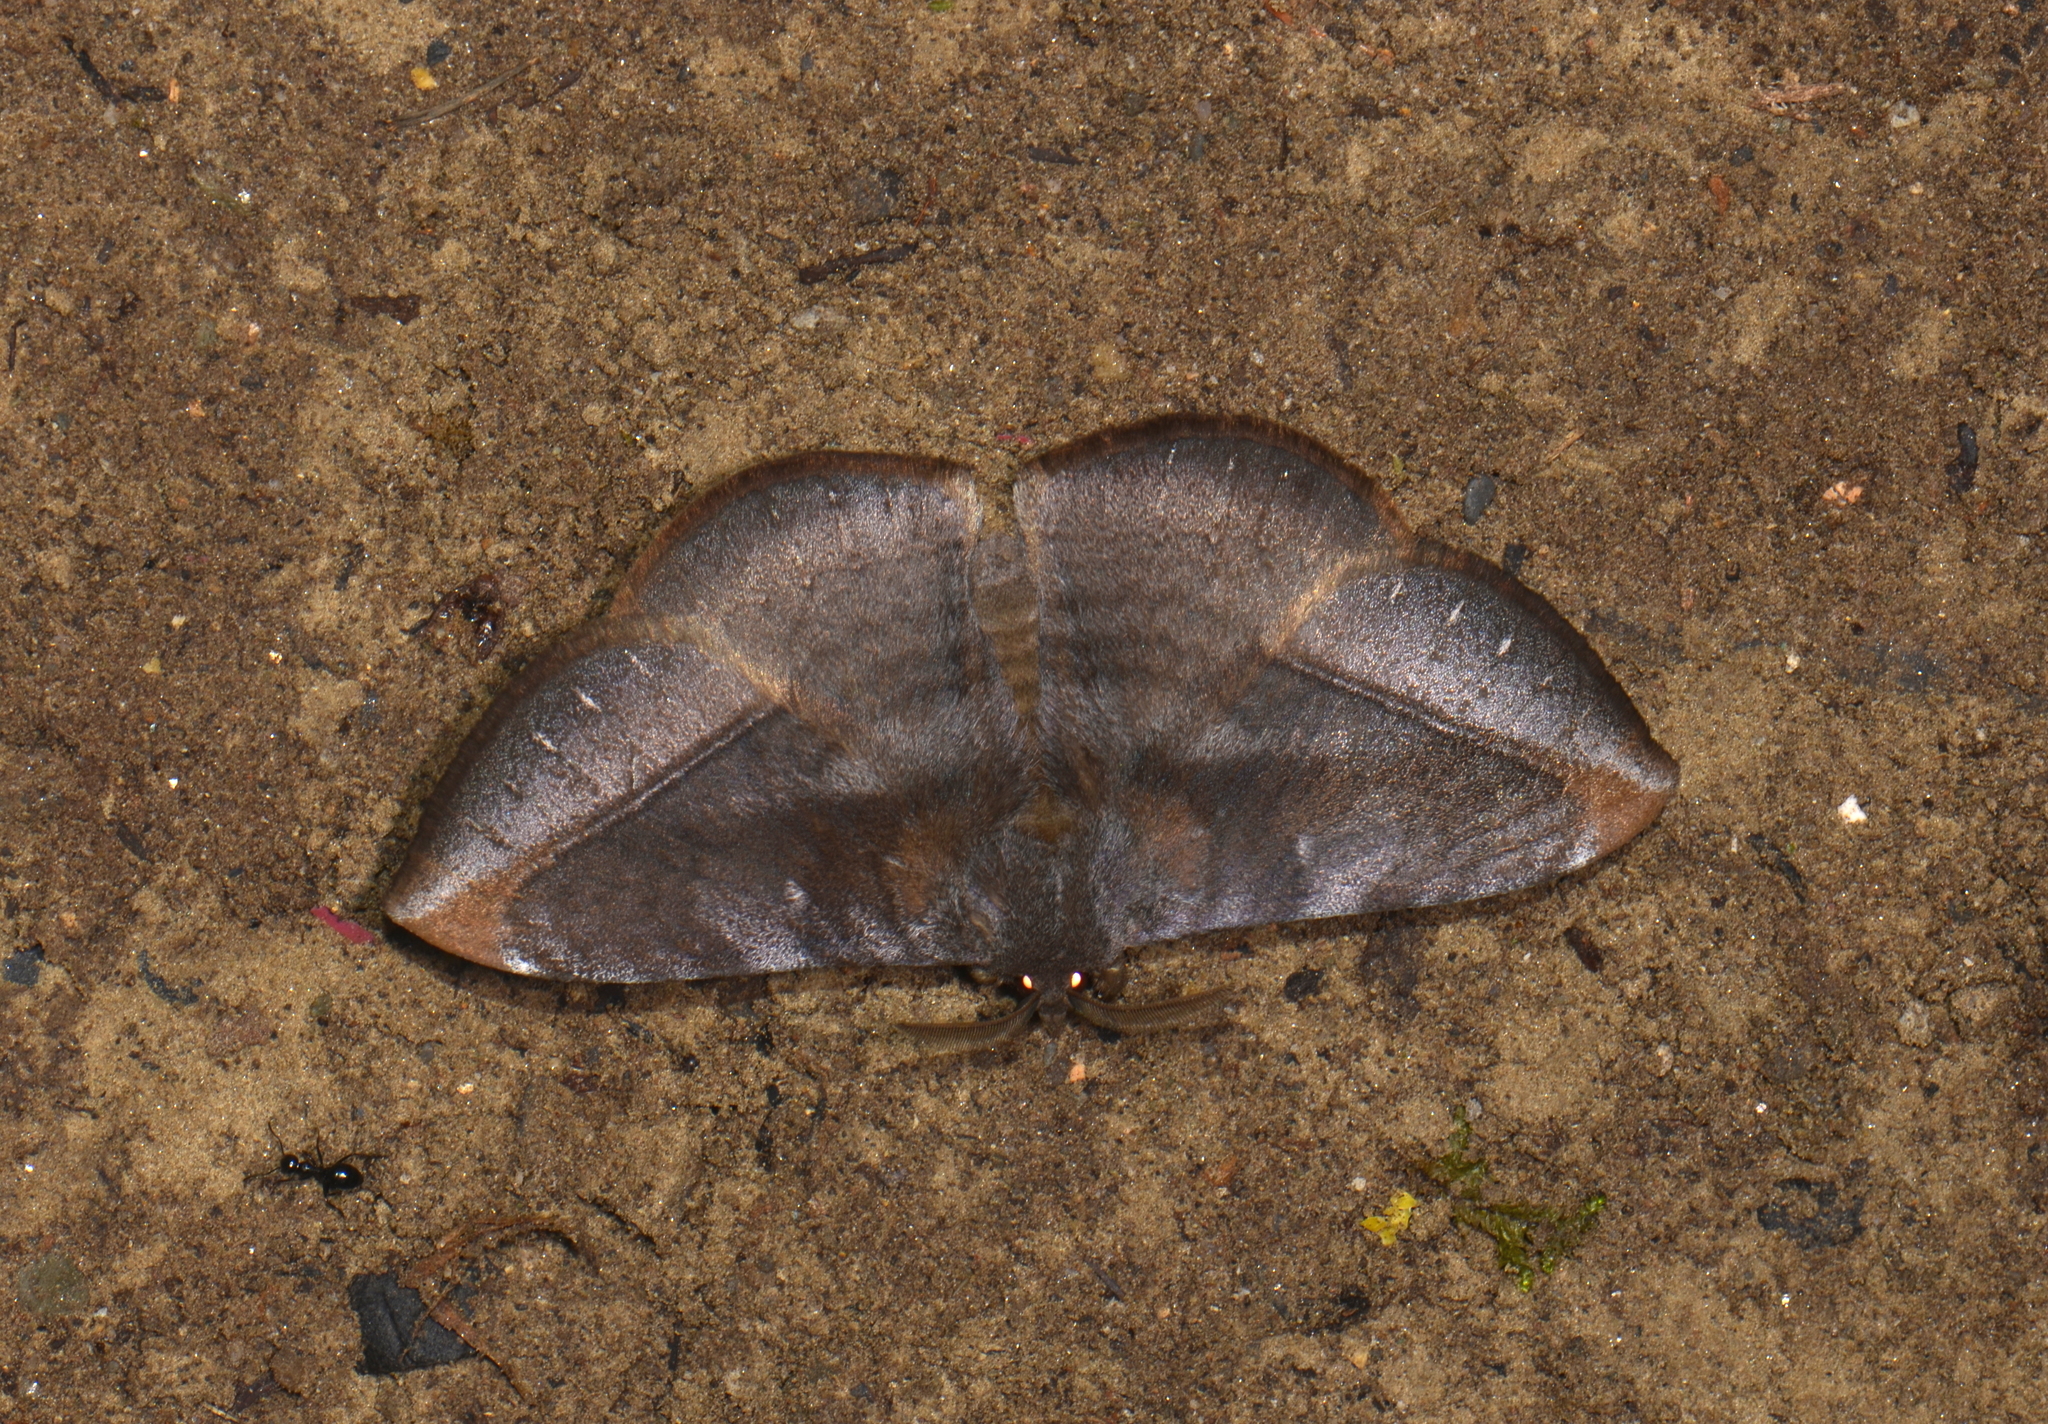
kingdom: Animalia
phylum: Arthropoda
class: Insecta
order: Lepidoptera
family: Eupterotidae
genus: Ganisa
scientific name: Ganisa similis
